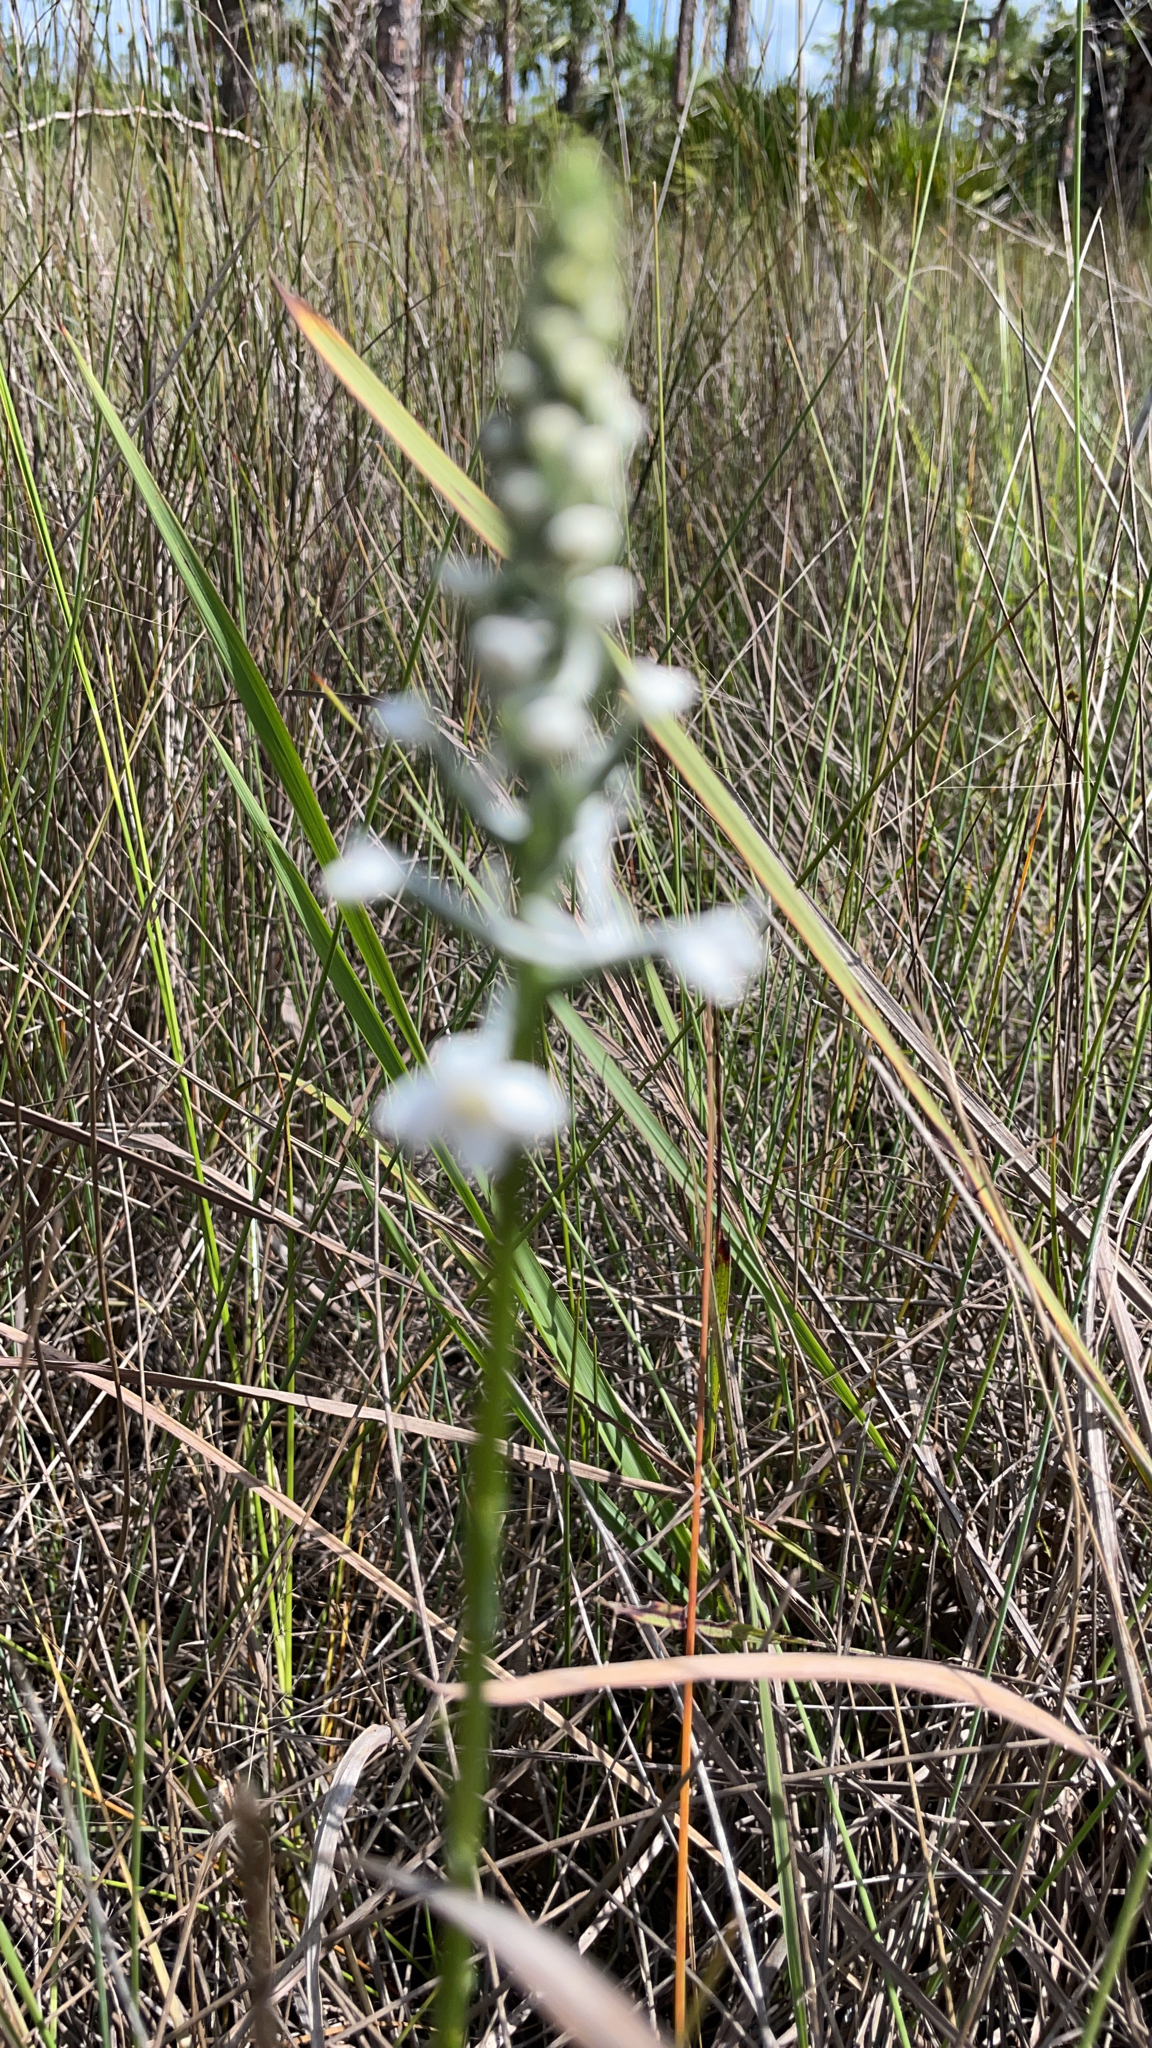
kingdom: Plantae
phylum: Tracheophyta
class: Liliopsida
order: Asparagales
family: Orchidaceae
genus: Platanthera
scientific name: Platanthera nivea
